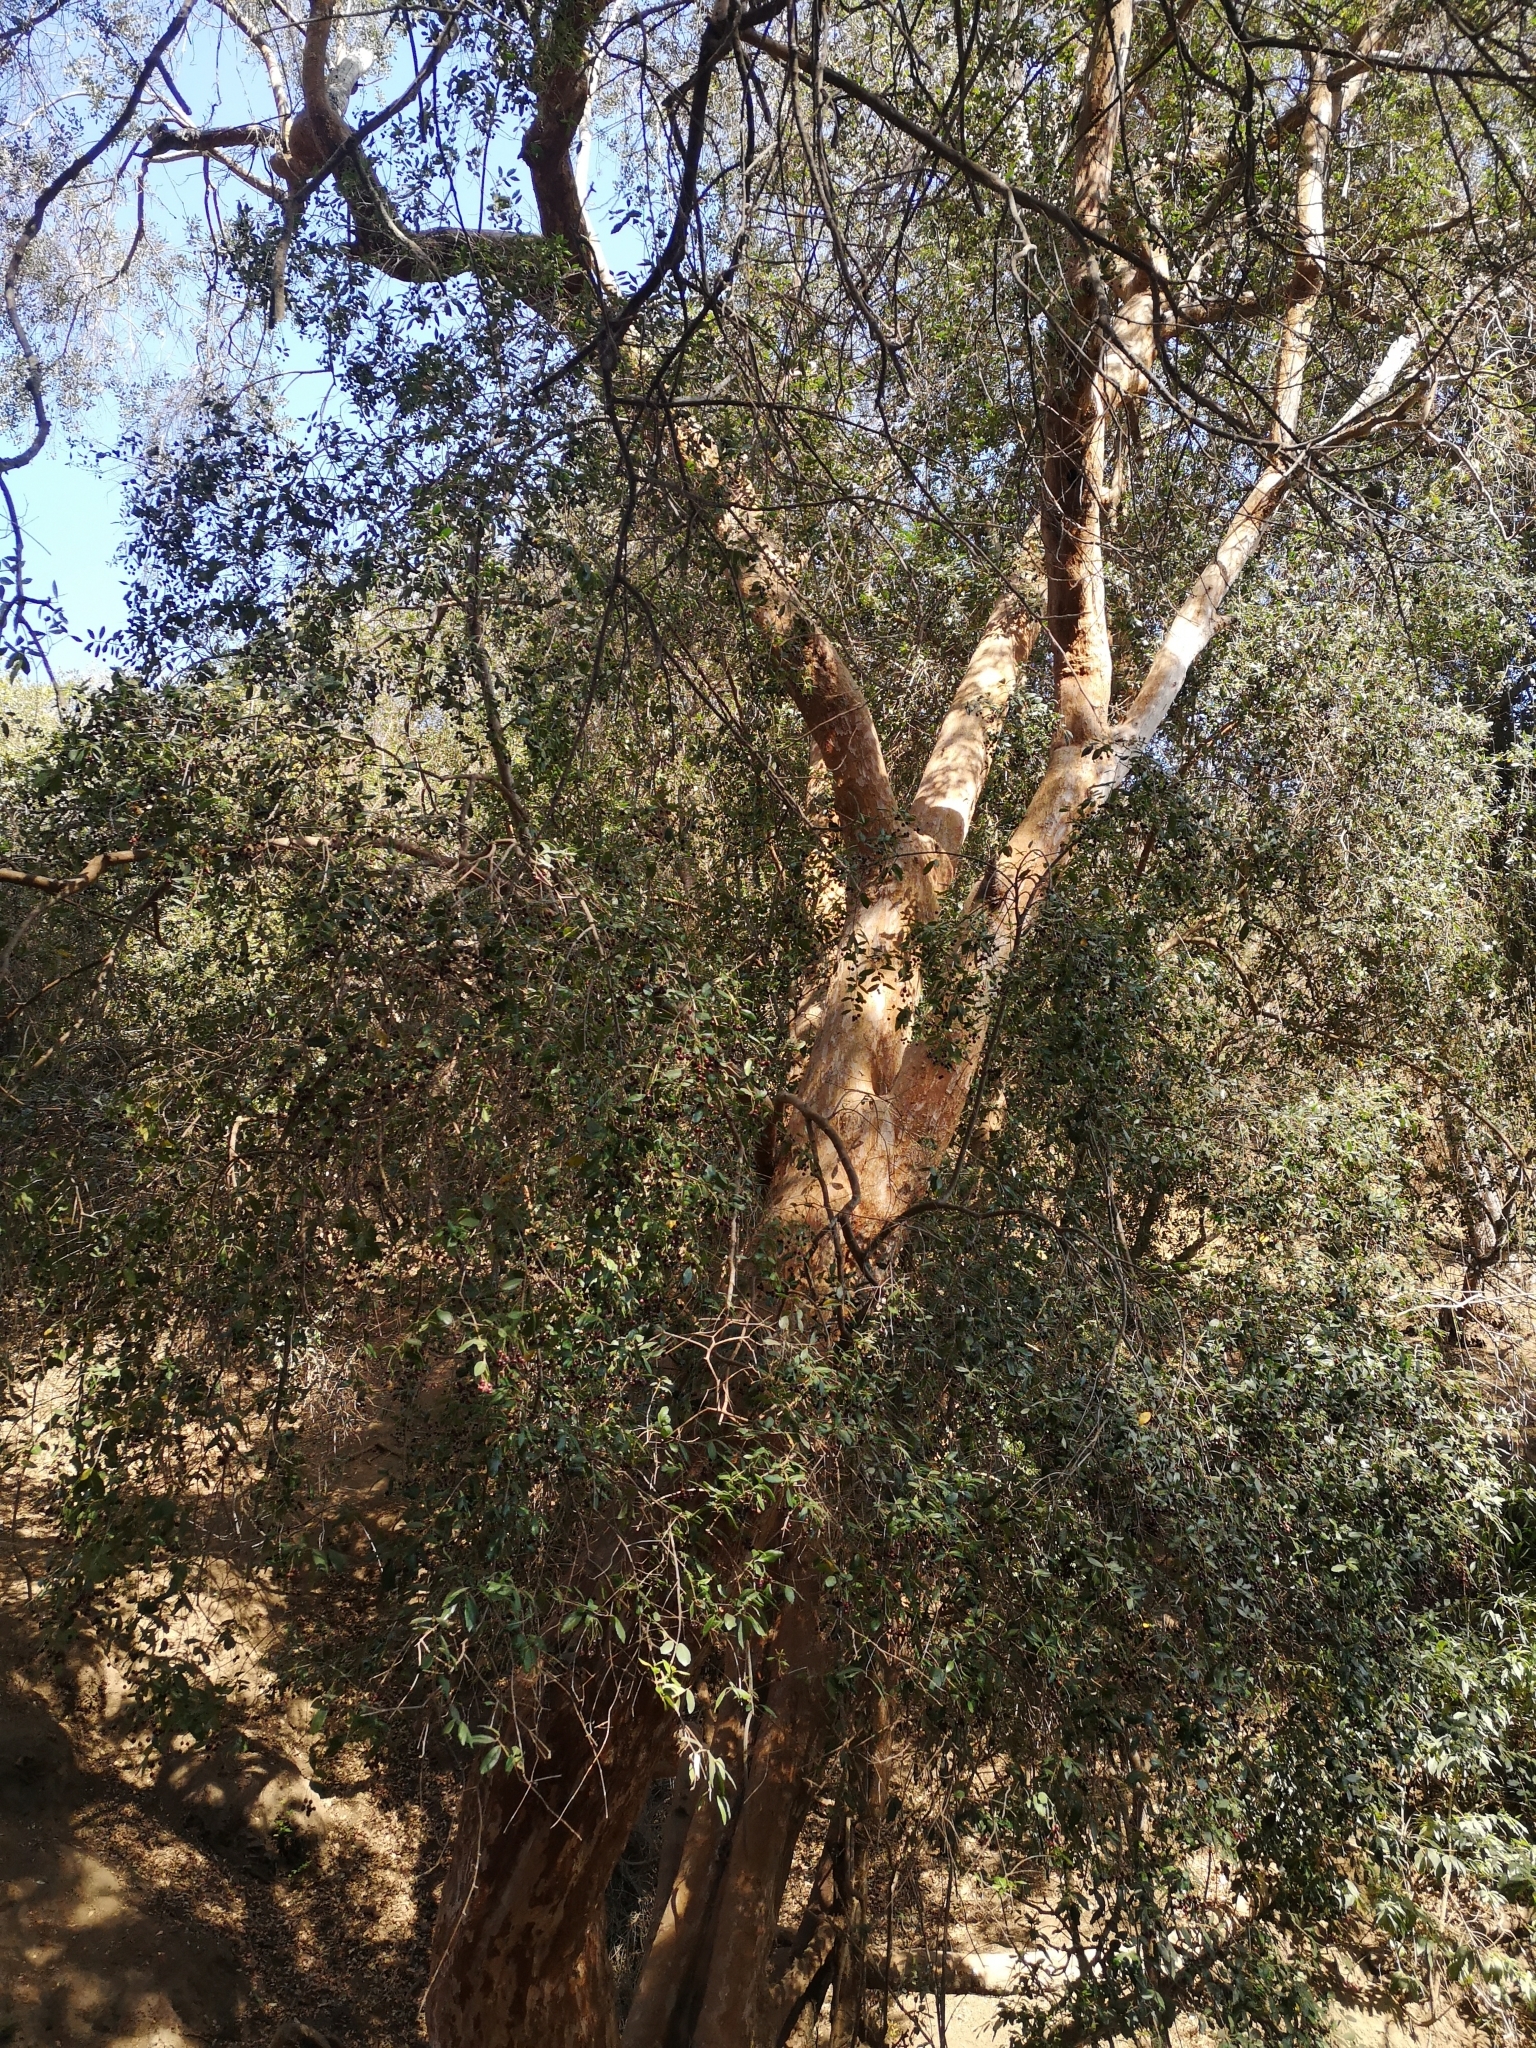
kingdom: Plantae
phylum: Tracheophyta
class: Magnoliopsida
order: Myrtales
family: Myrtaceae
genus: Blepharocalyx
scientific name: Blepharocalyx cruckshanksii
